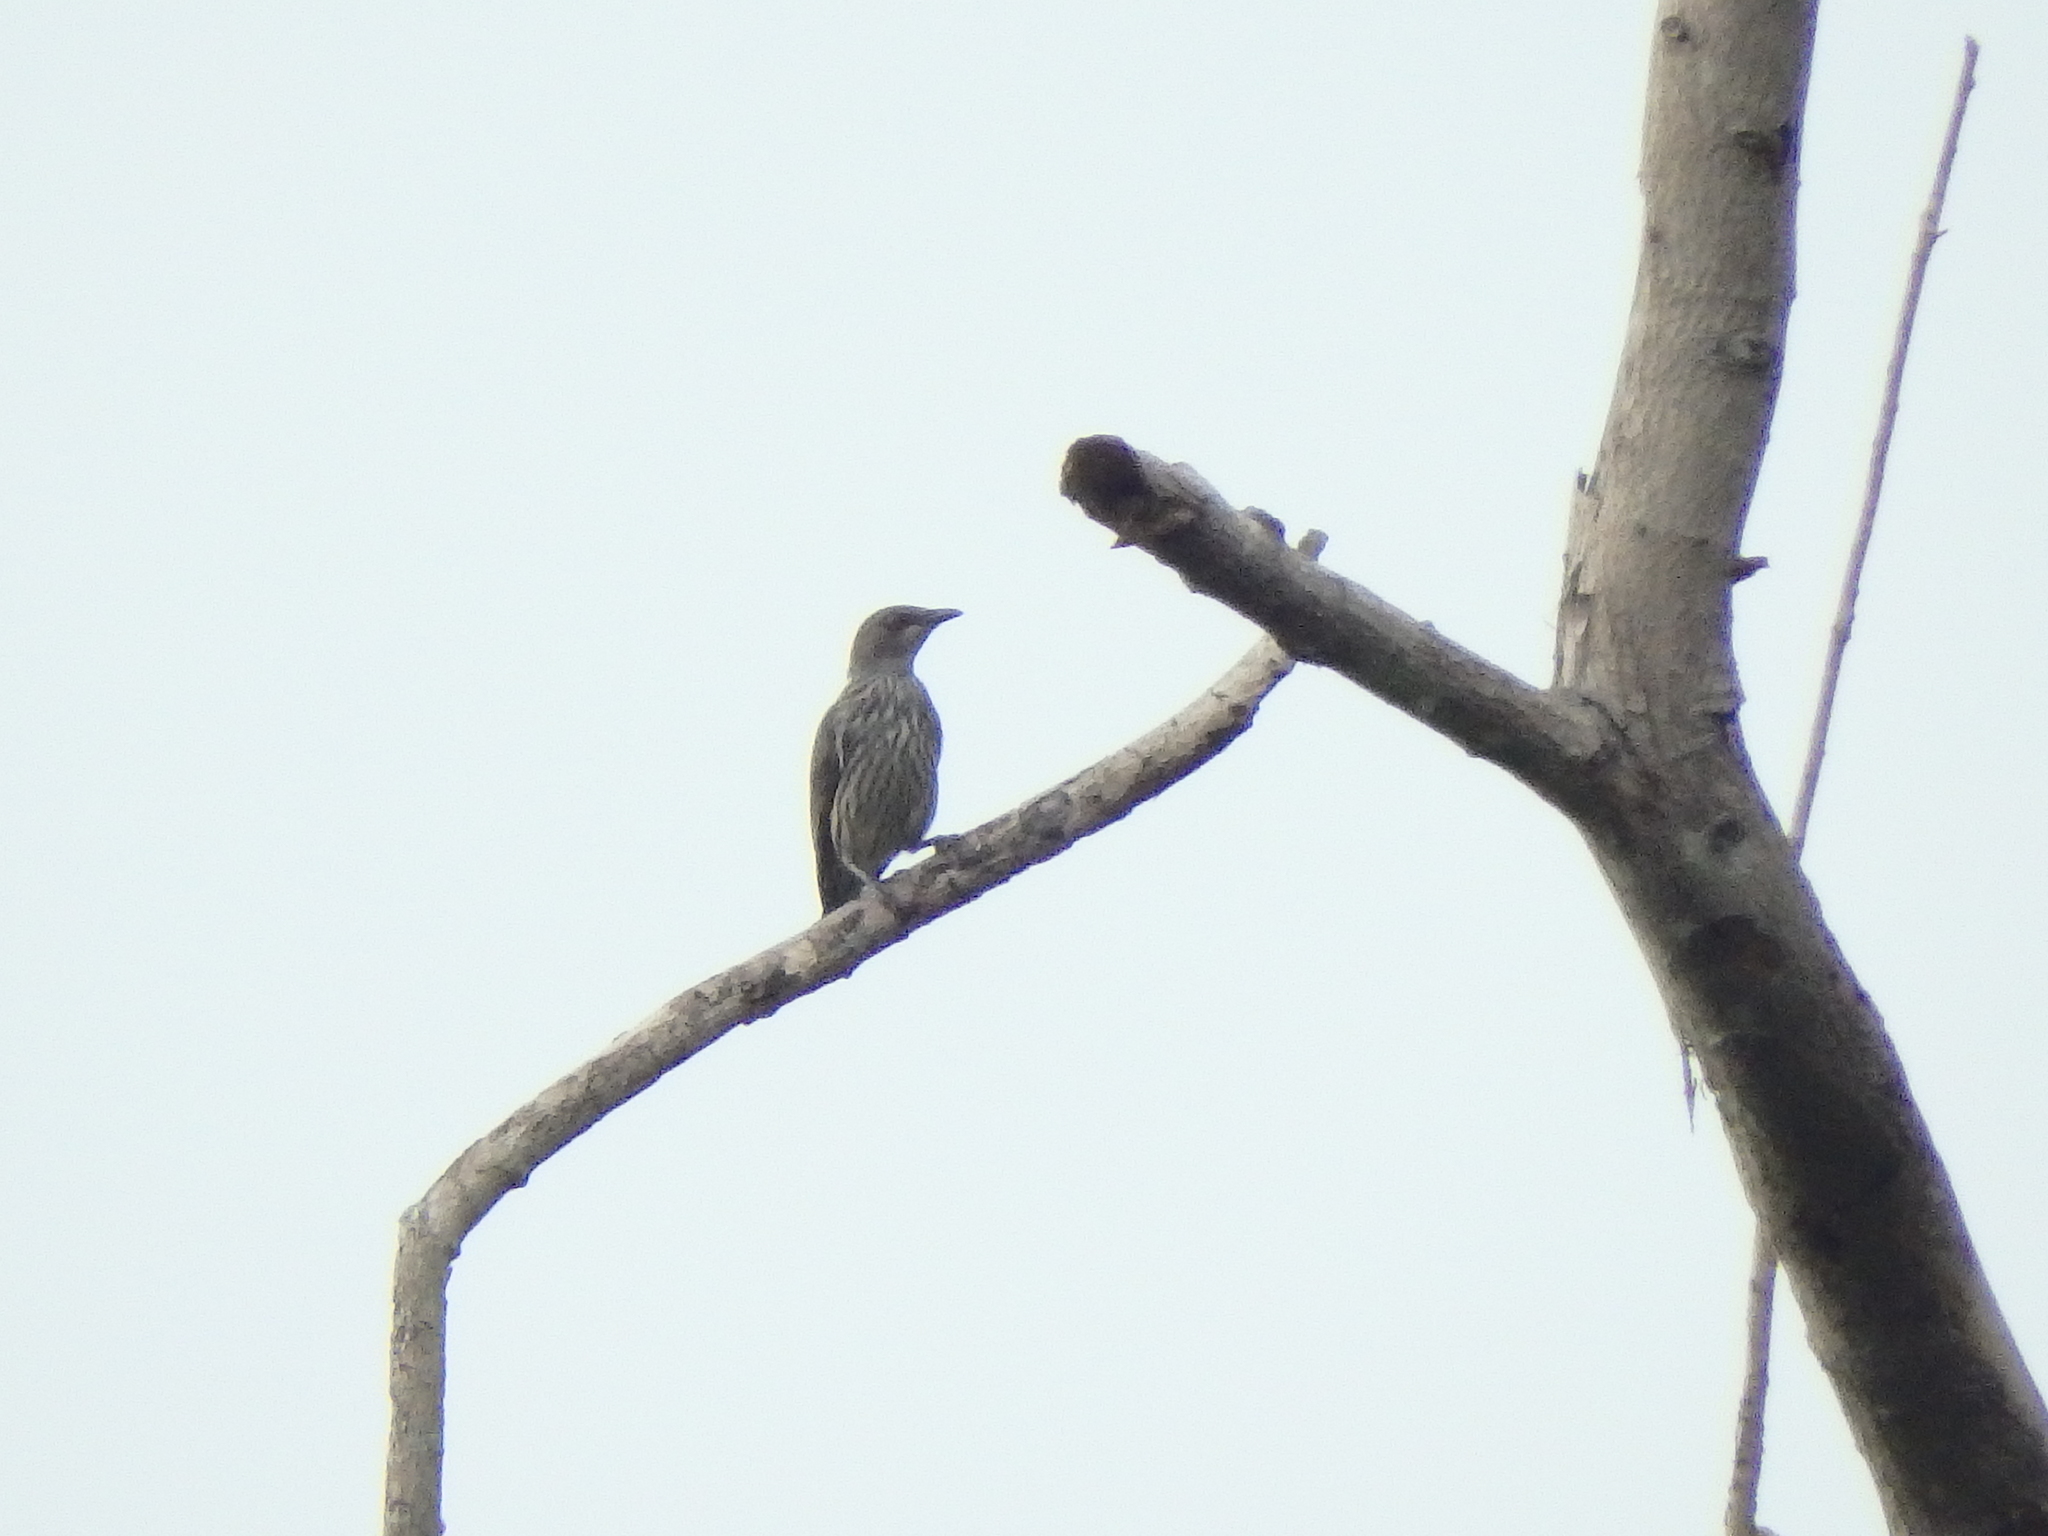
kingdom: Animalia
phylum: Chordata
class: Aves
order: Passeriformes
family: Sturnidae
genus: Aplonis
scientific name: Aplonis panayensis
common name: Asian glossy starling
